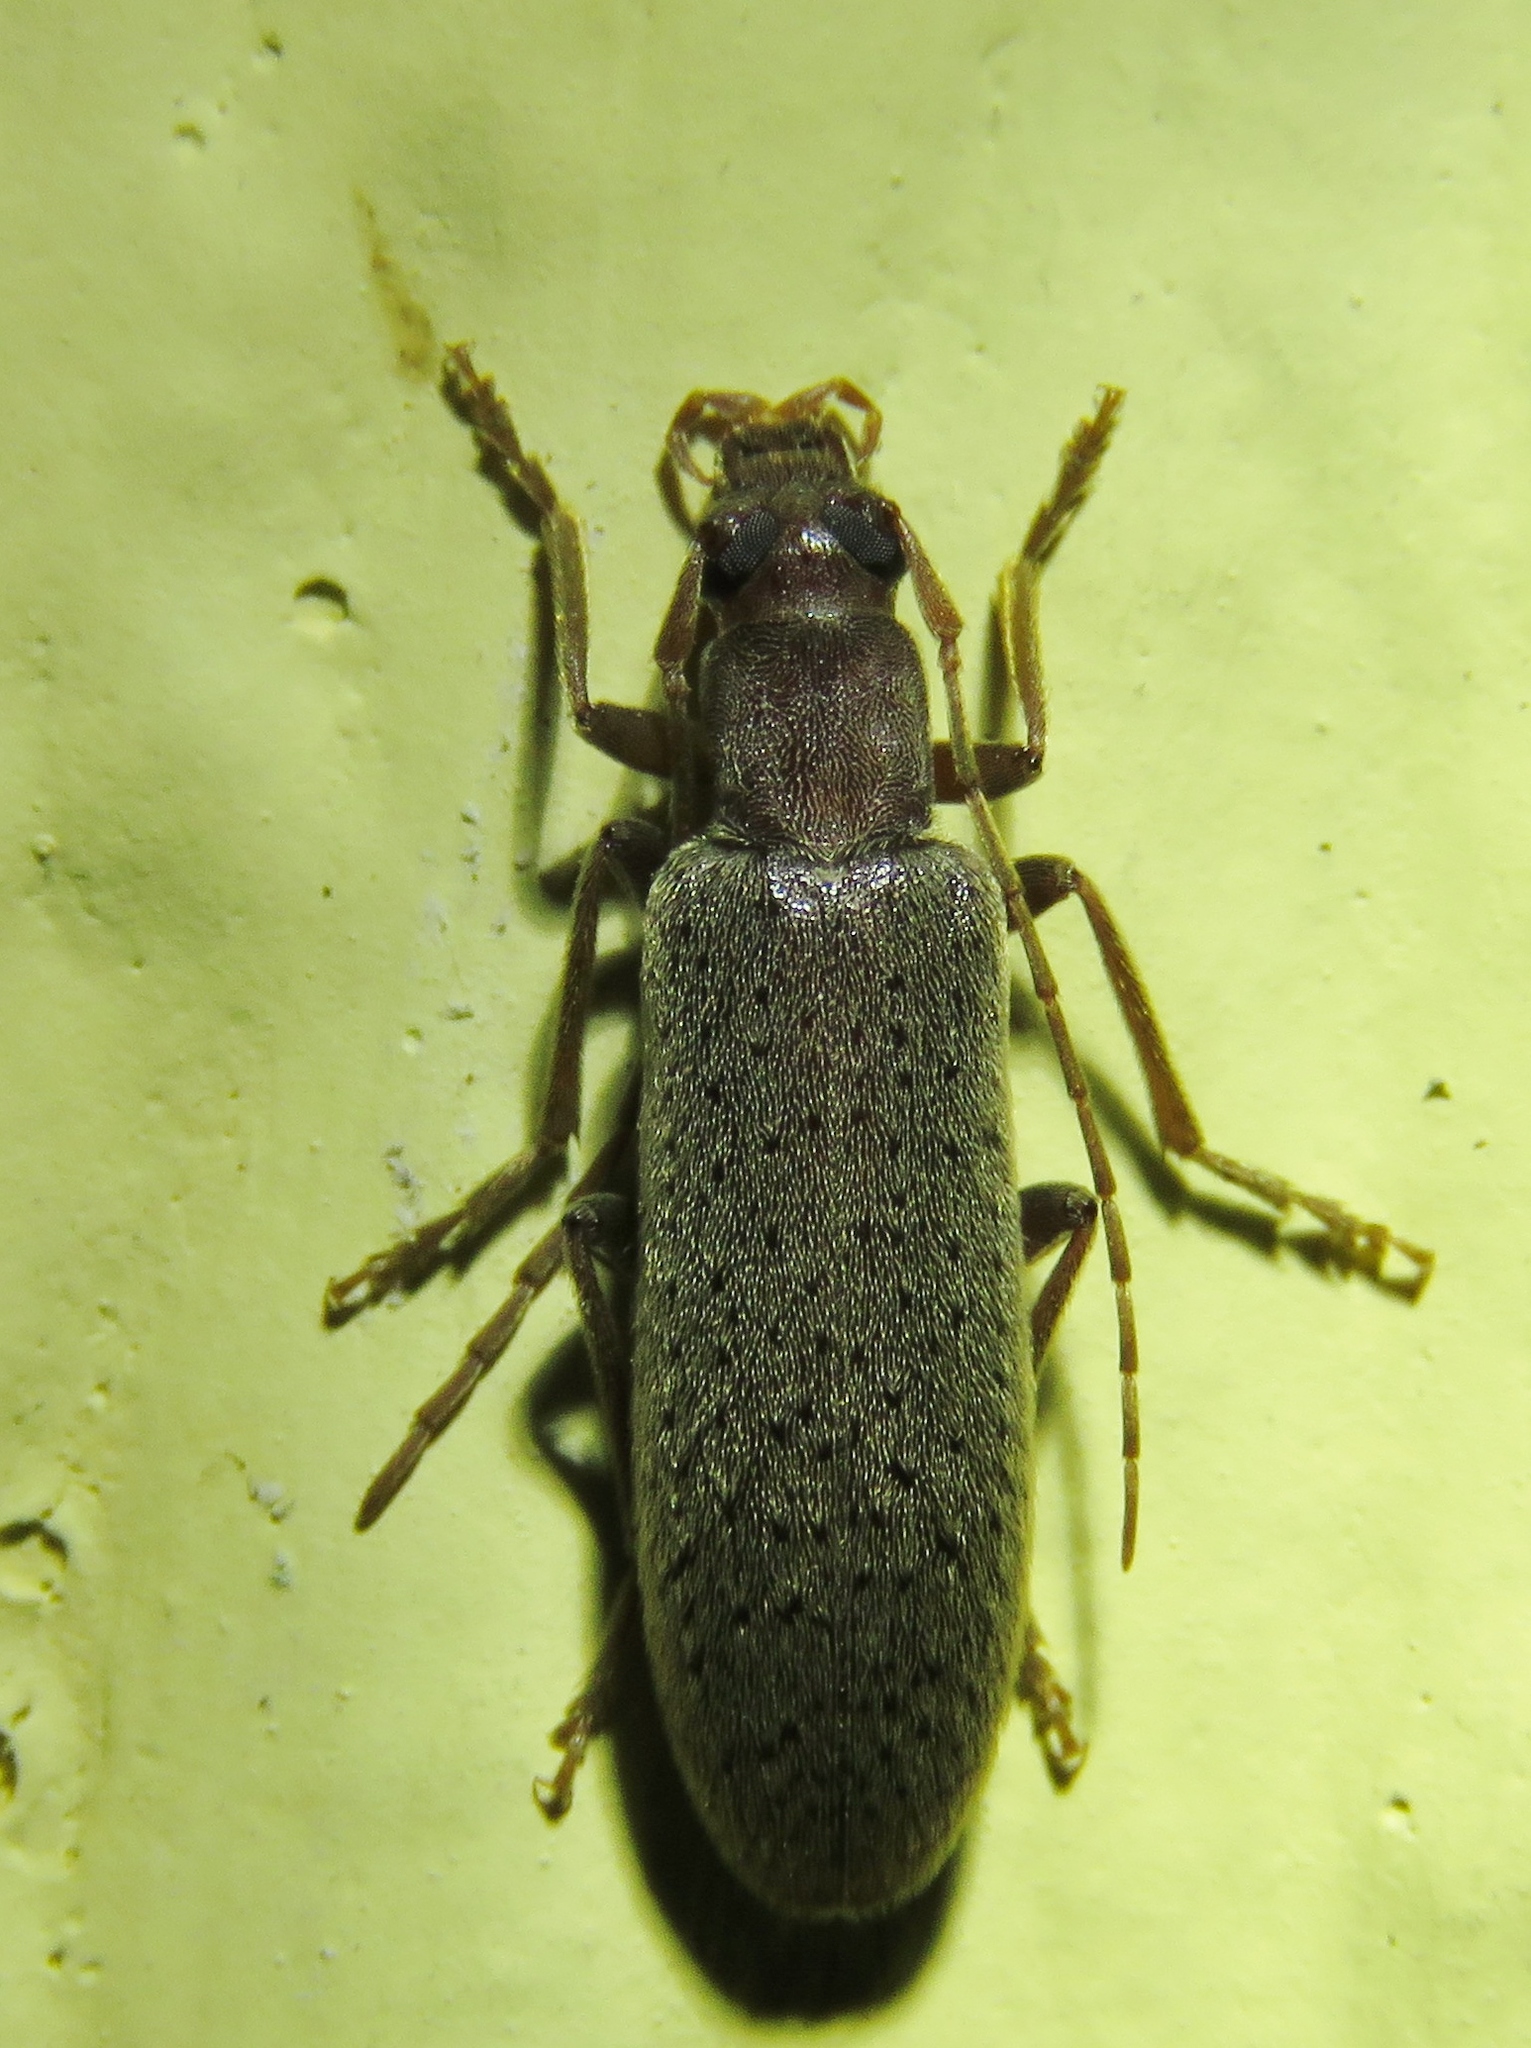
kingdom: Animalia
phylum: Arthropoda
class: Insecta
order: Coleoptera
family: Oedemeridae
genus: Sparedrus
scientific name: Sparedrus aspersus
